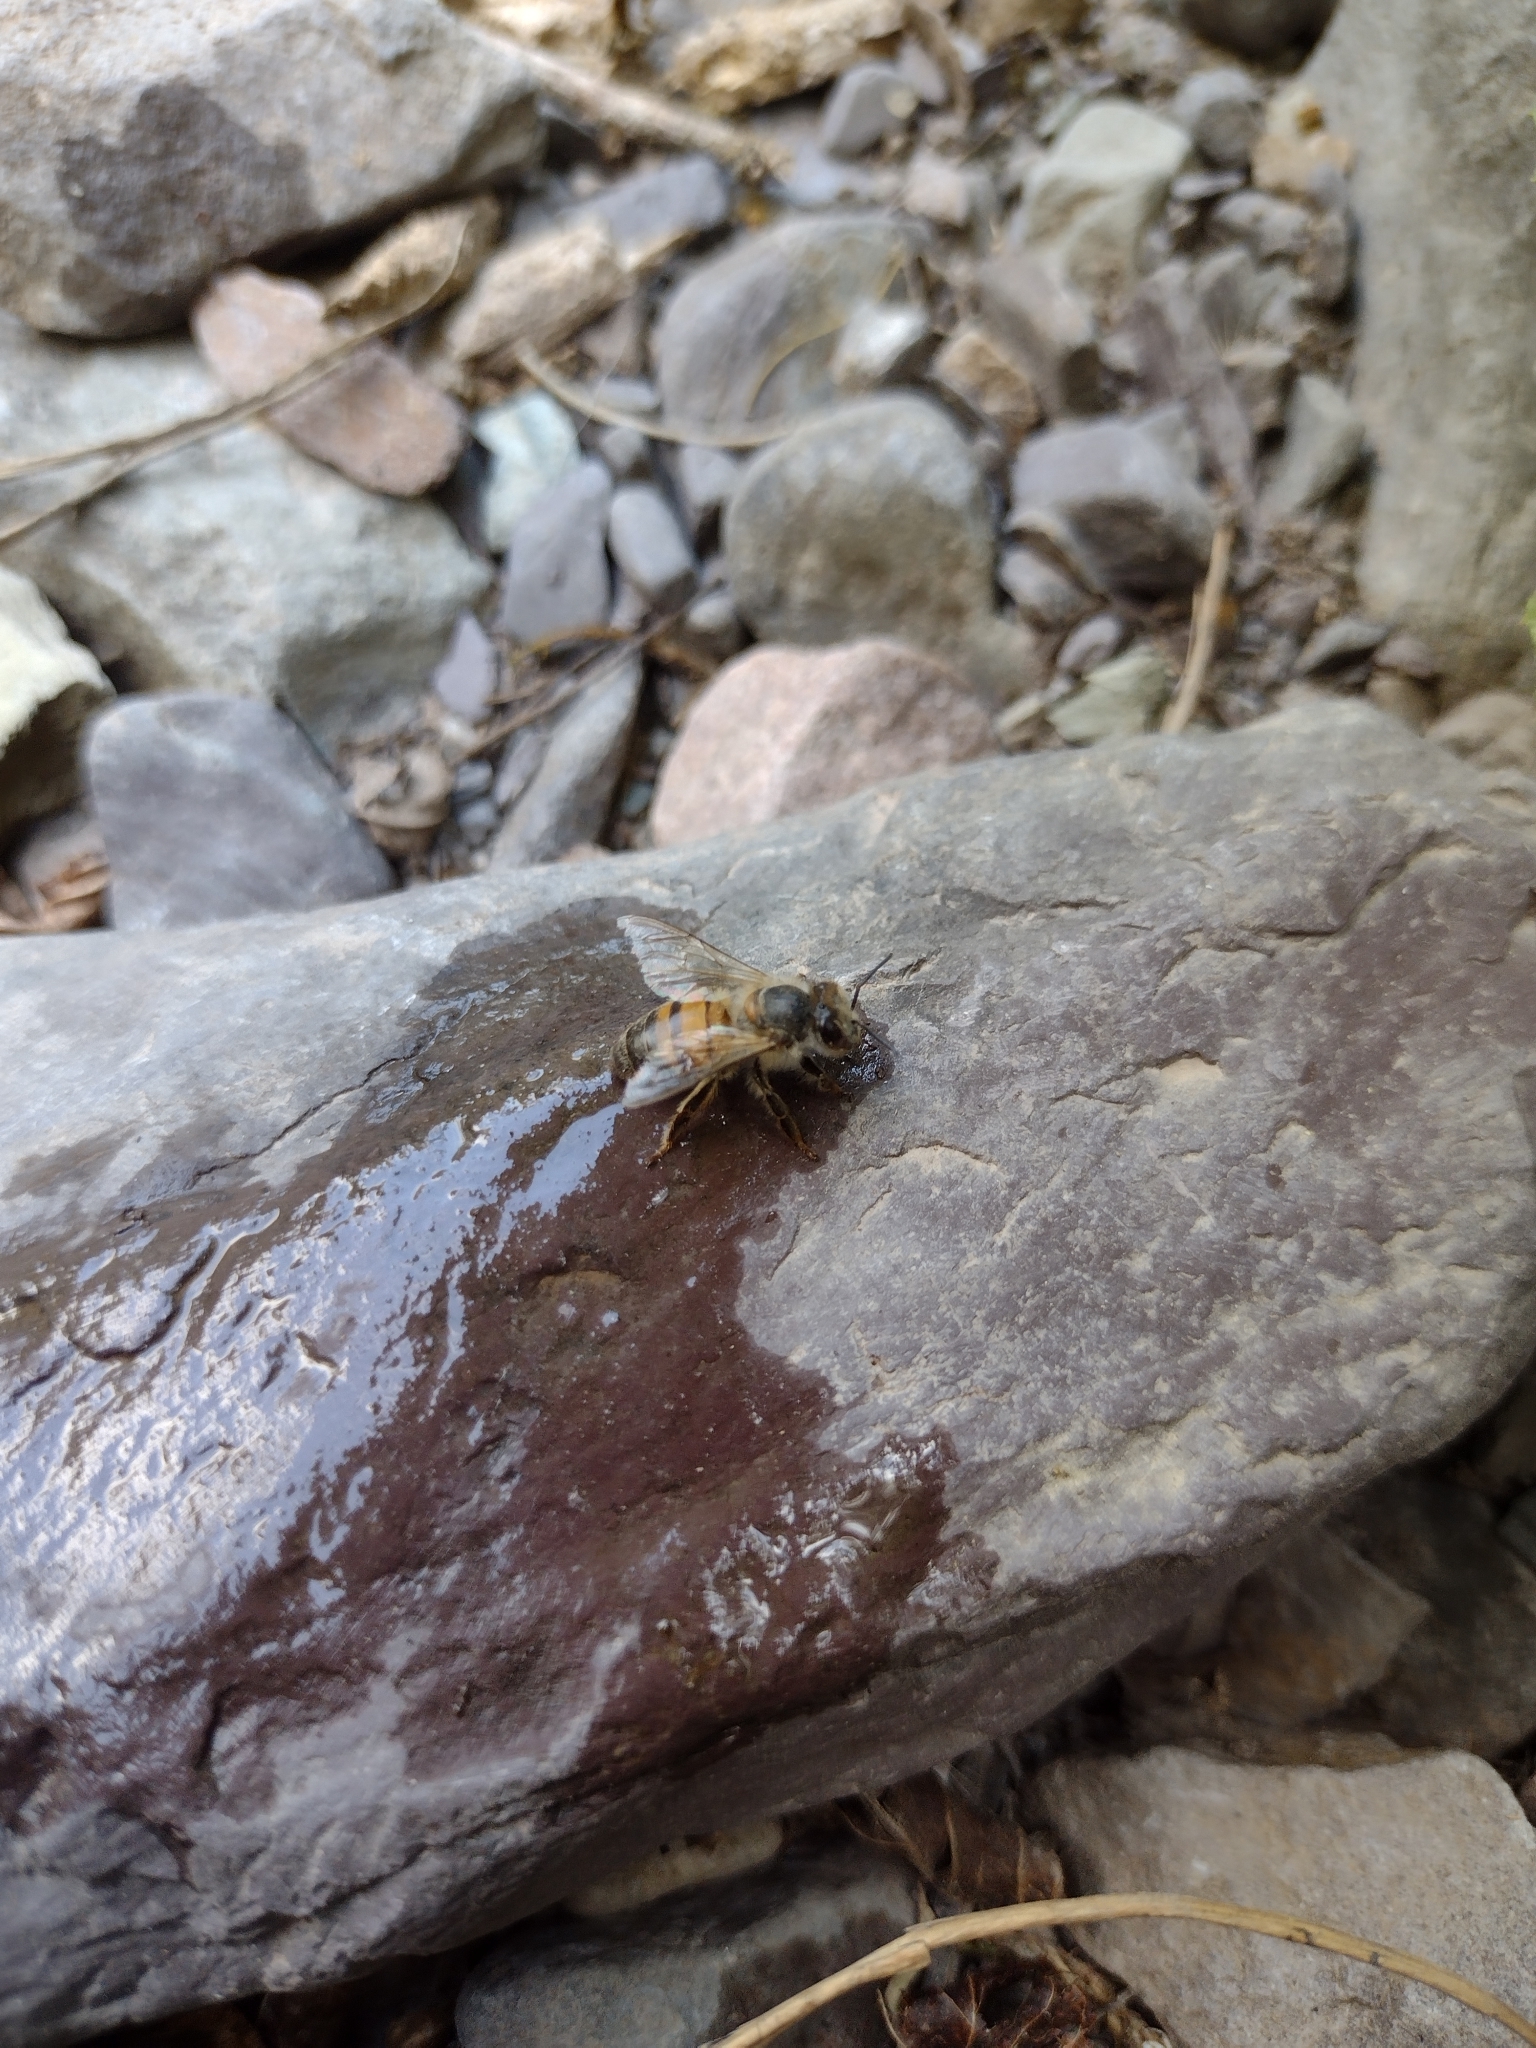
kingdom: Animalia
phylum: Arthropoda
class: Insecta
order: Hymenoptera
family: Apidae
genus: Apis
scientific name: Apis mellifera
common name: Honey bee
